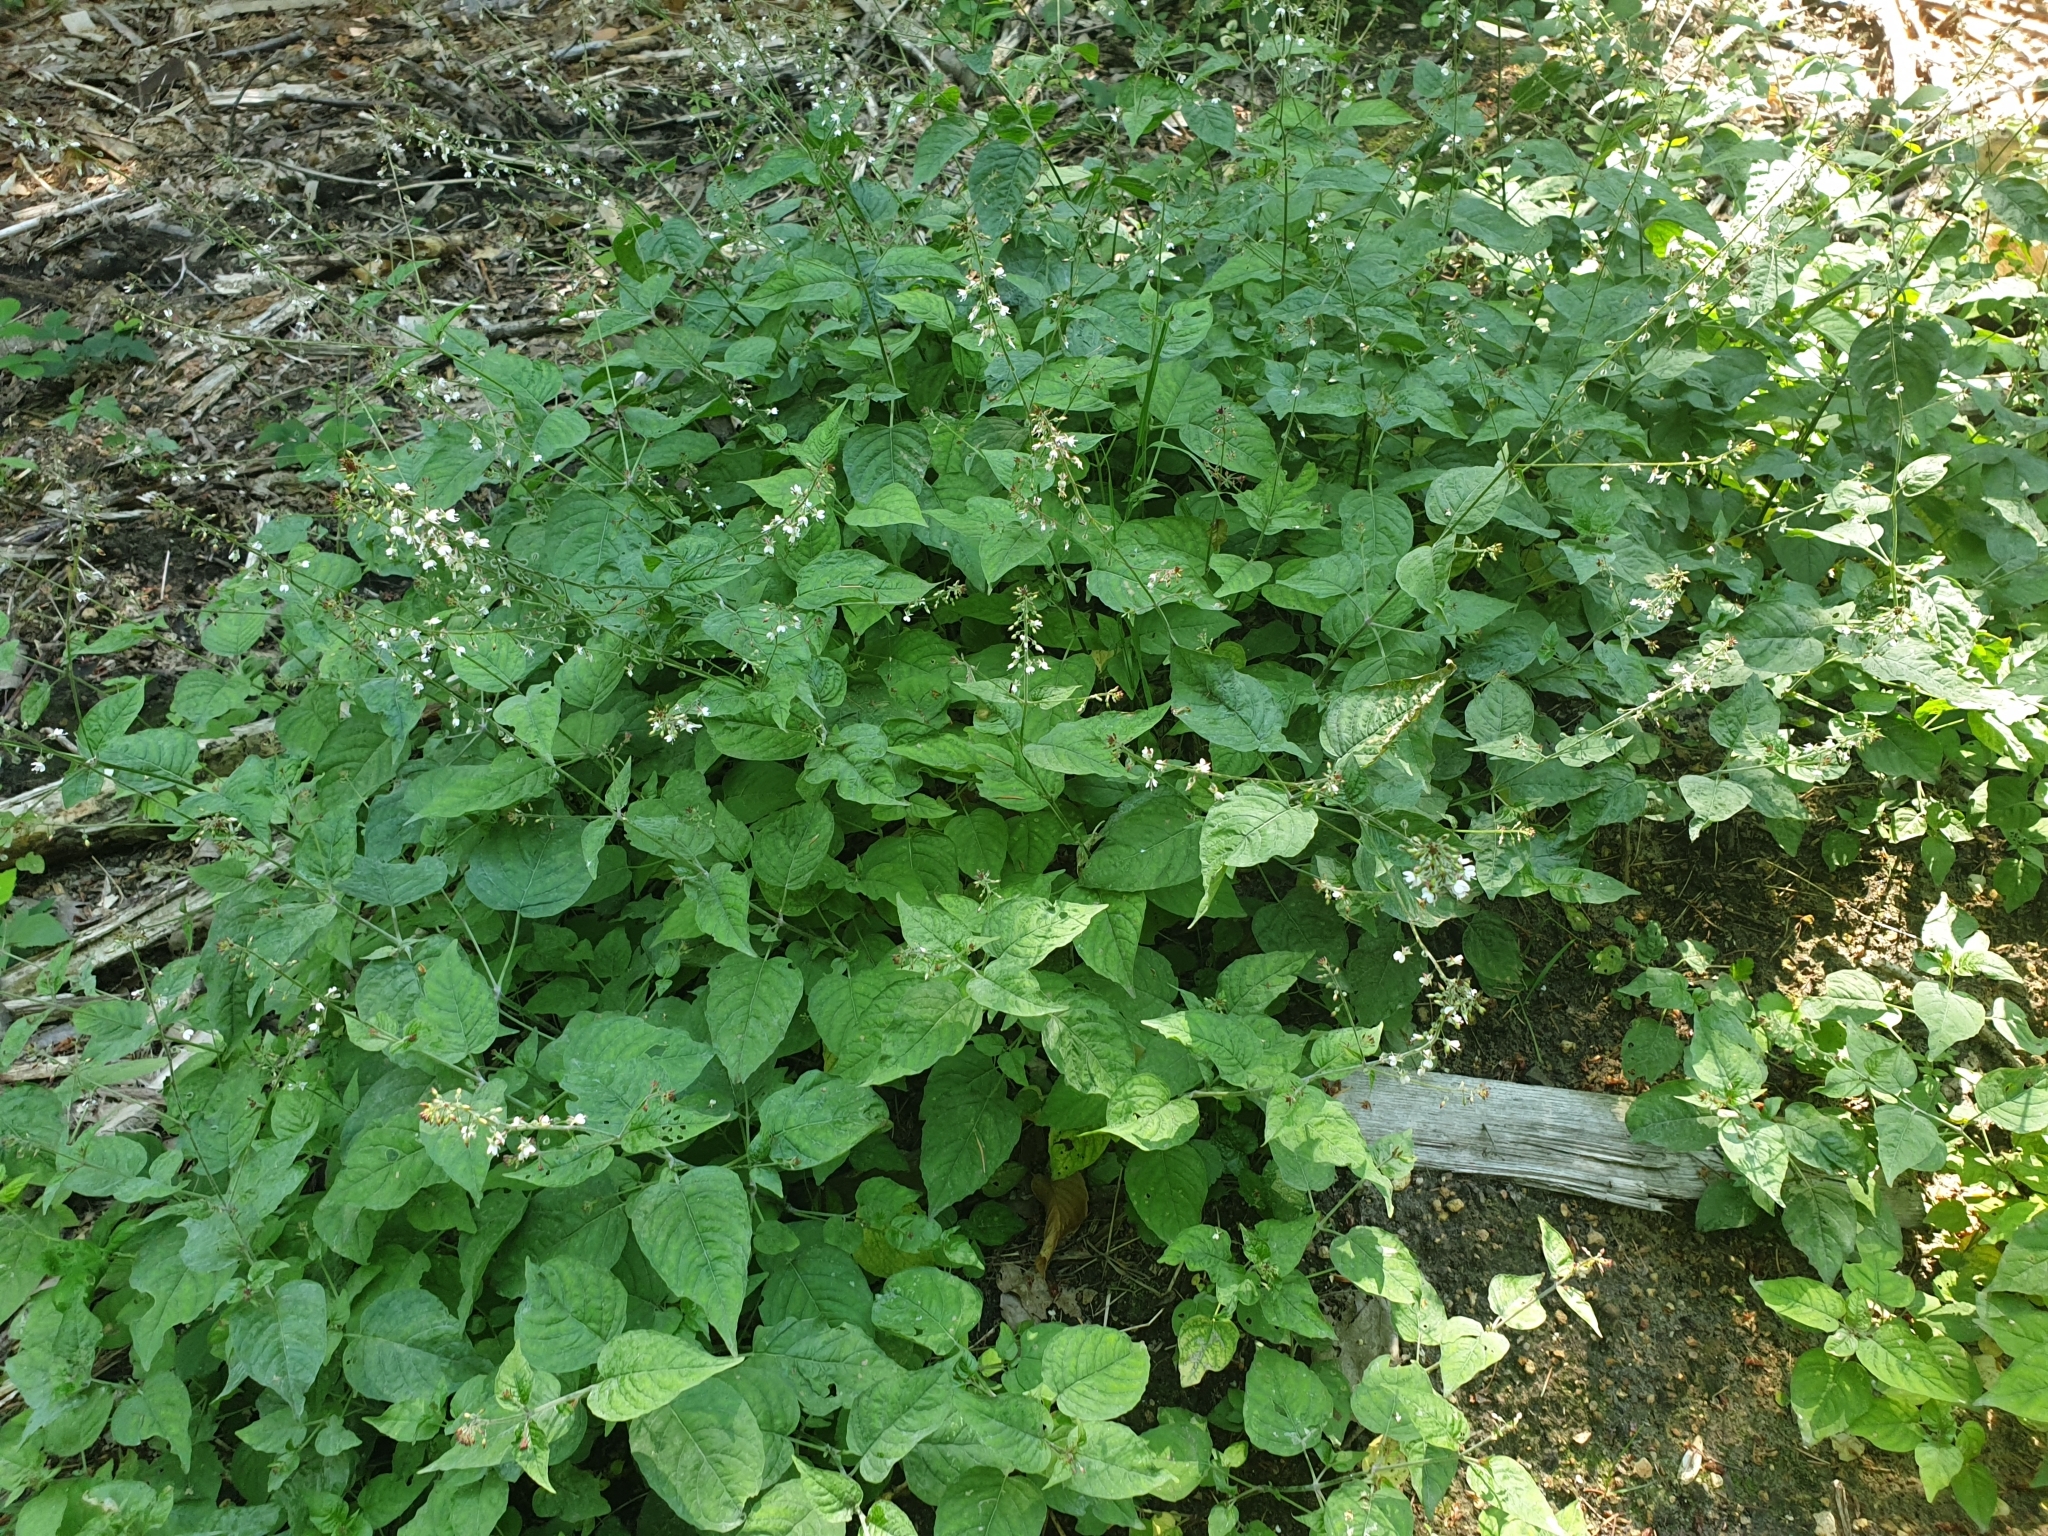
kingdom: Plantae
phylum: Tracheophyta
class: Magnoliopsida
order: Myrtales
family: Onagraceae
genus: Circaea
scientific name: Circaea lutetiana
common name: Enchanter's-nightshade
